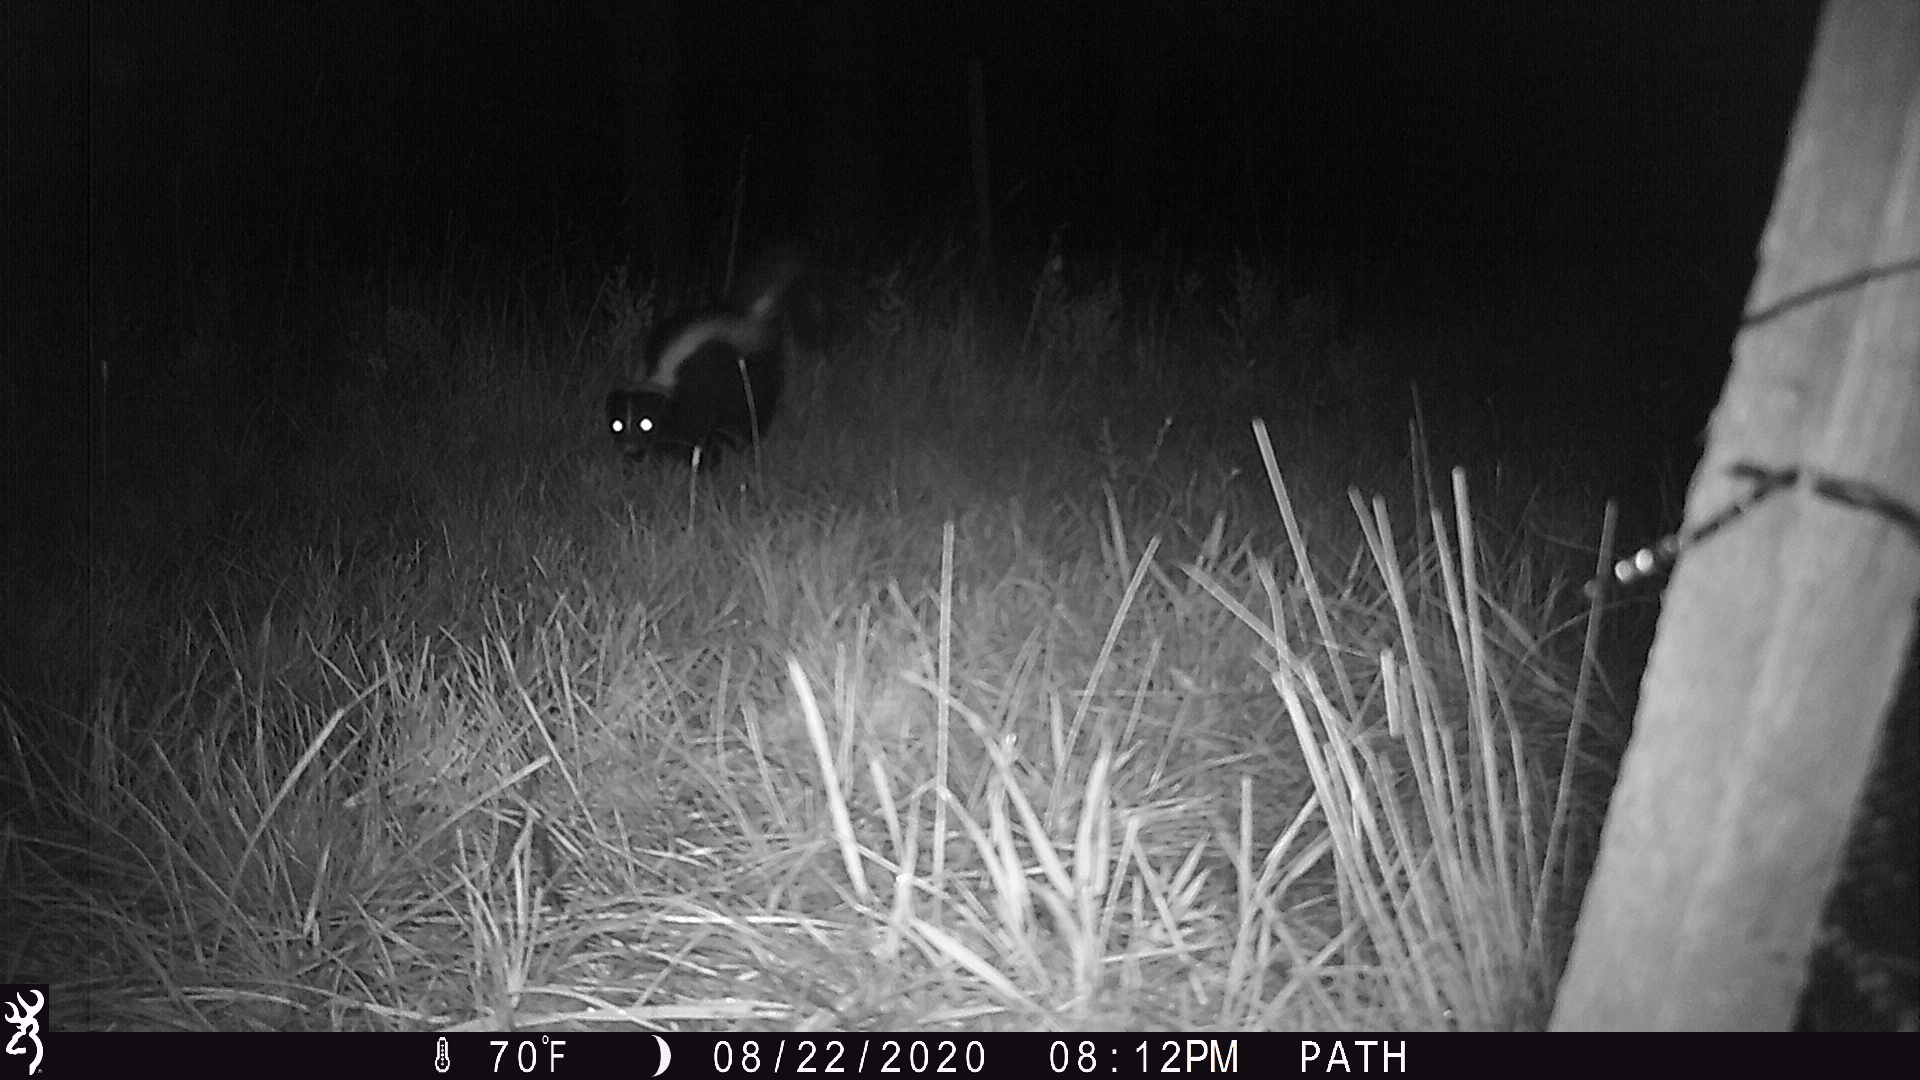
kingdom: Animalia
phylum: Chordata
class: Mammalia
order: Carnivora
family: Mephitidae
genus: Mephitis
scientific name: Mephitis mephitis
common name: Striped skunk
